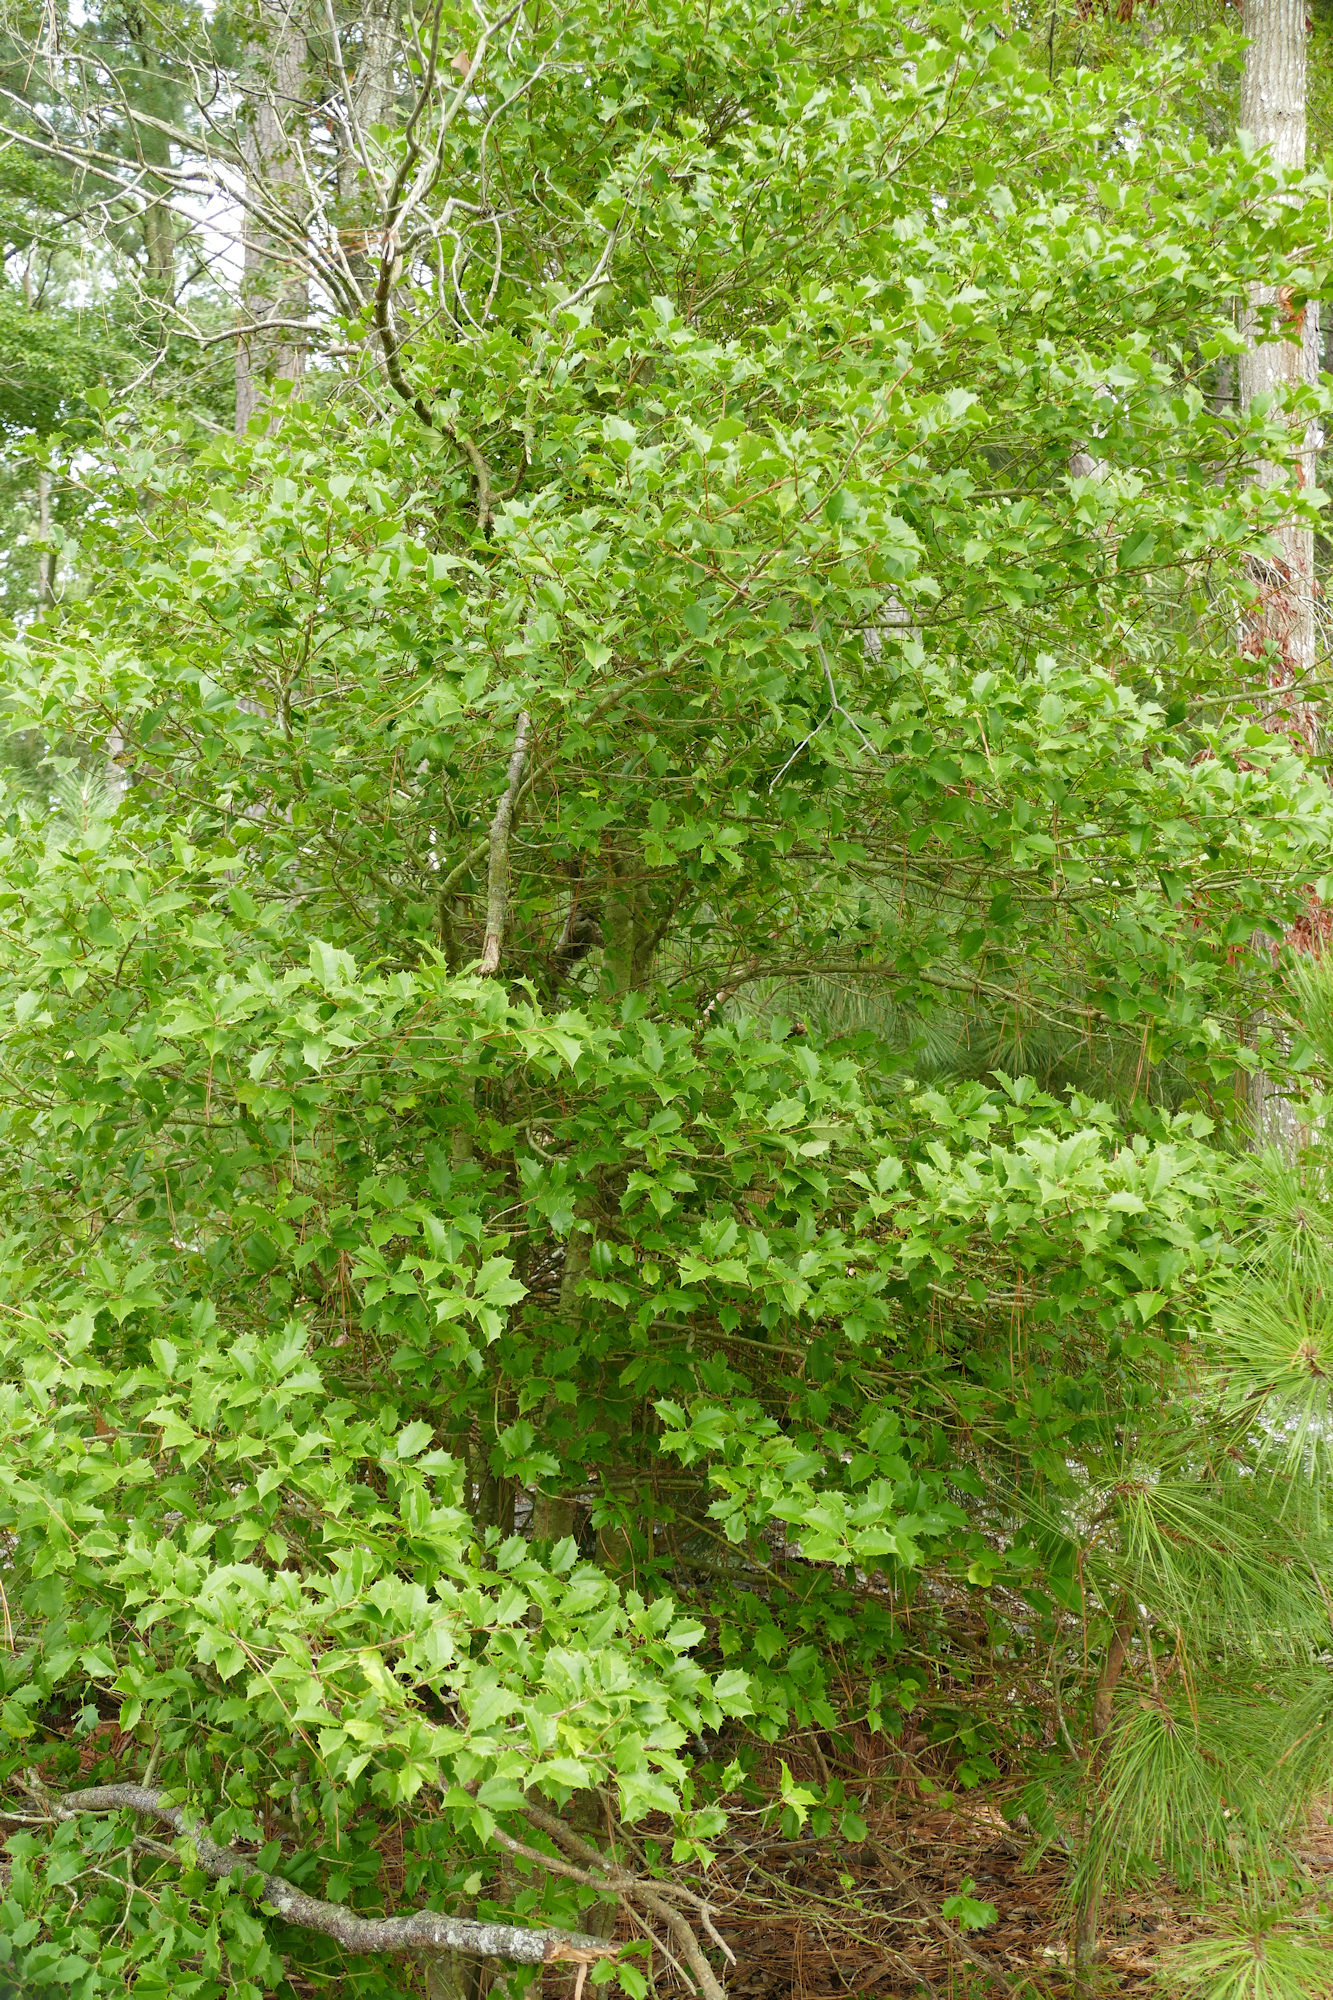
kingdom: Plantae
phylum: Tracheophyta
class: Magnoliopsida
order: Aquifoliales
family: Aquifoliaceae
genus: Ilex
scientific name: Ilex opaca
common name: American holly
